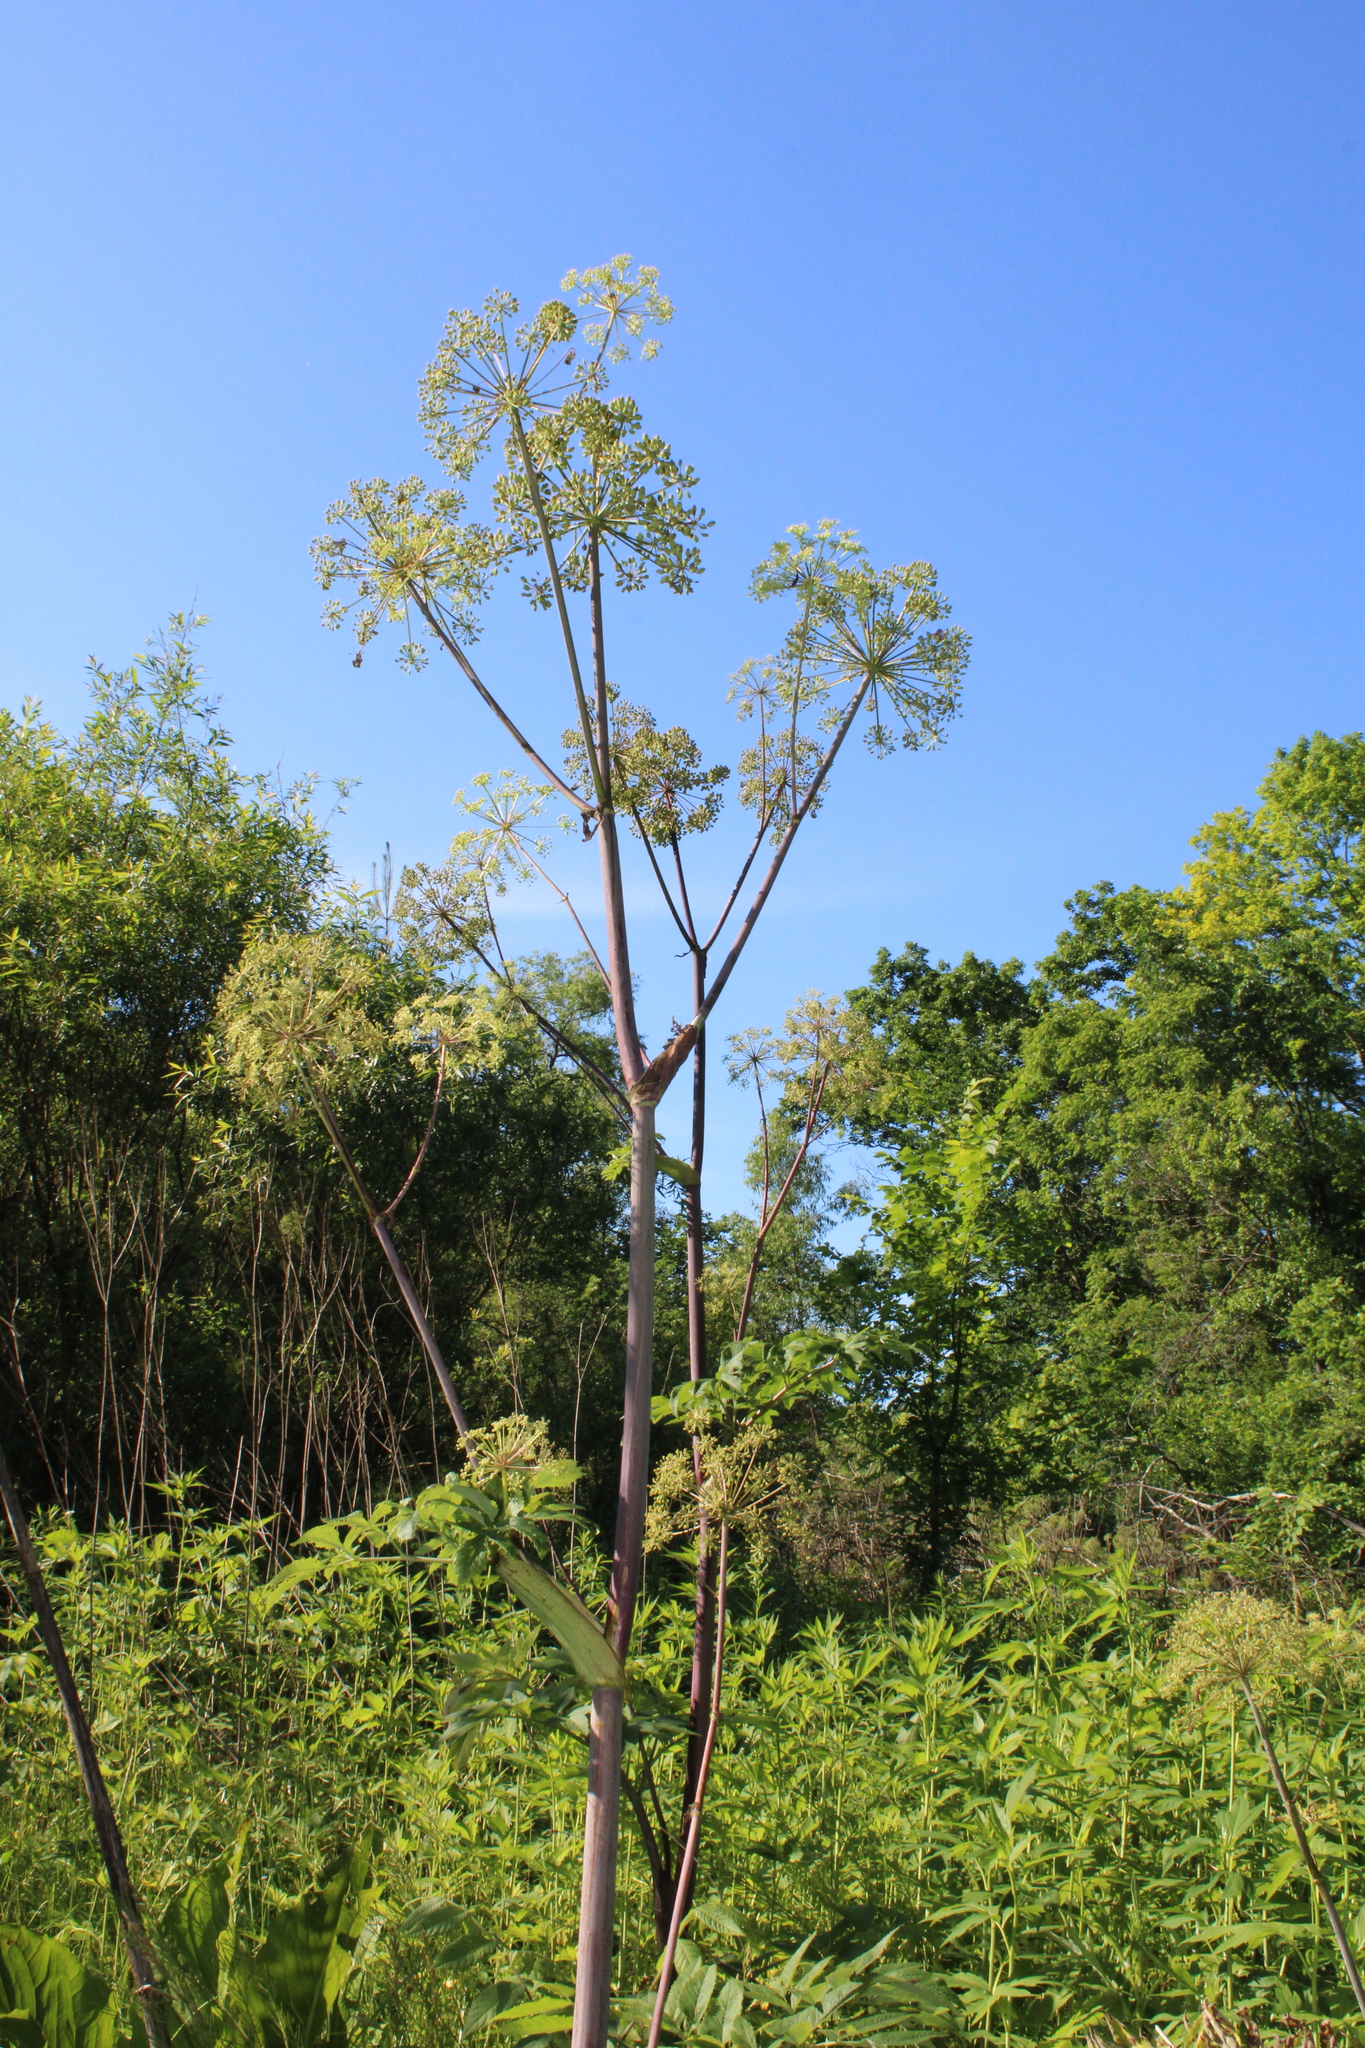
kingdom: Plantae
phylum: Tracheophyta
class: Magnoliopsida
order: Apiales
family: Apiaceae
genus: Angelica
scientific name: Angelica atropurpurea
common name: Great angelica
